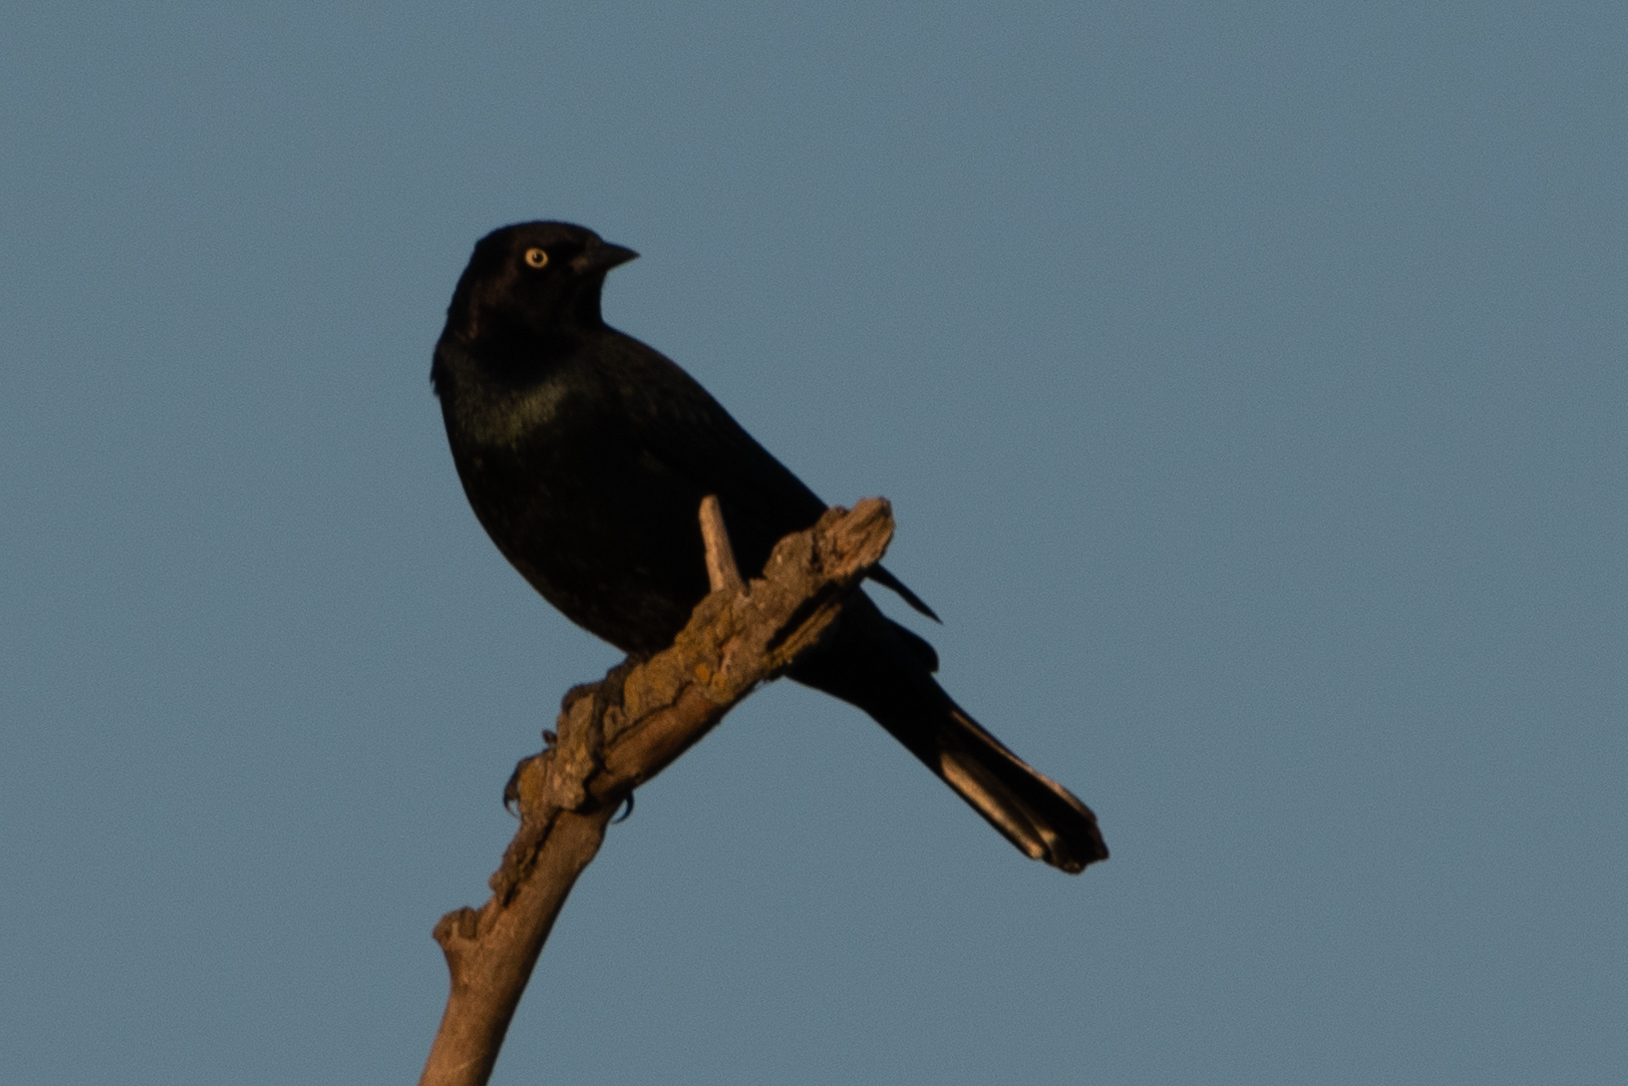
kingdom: Animalia
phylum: Chordata
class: Aves
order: Passeriformes
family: Icteridae
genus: Euphagus
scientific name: Euphagus cyanocephalus
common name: Brewer's blackbird
